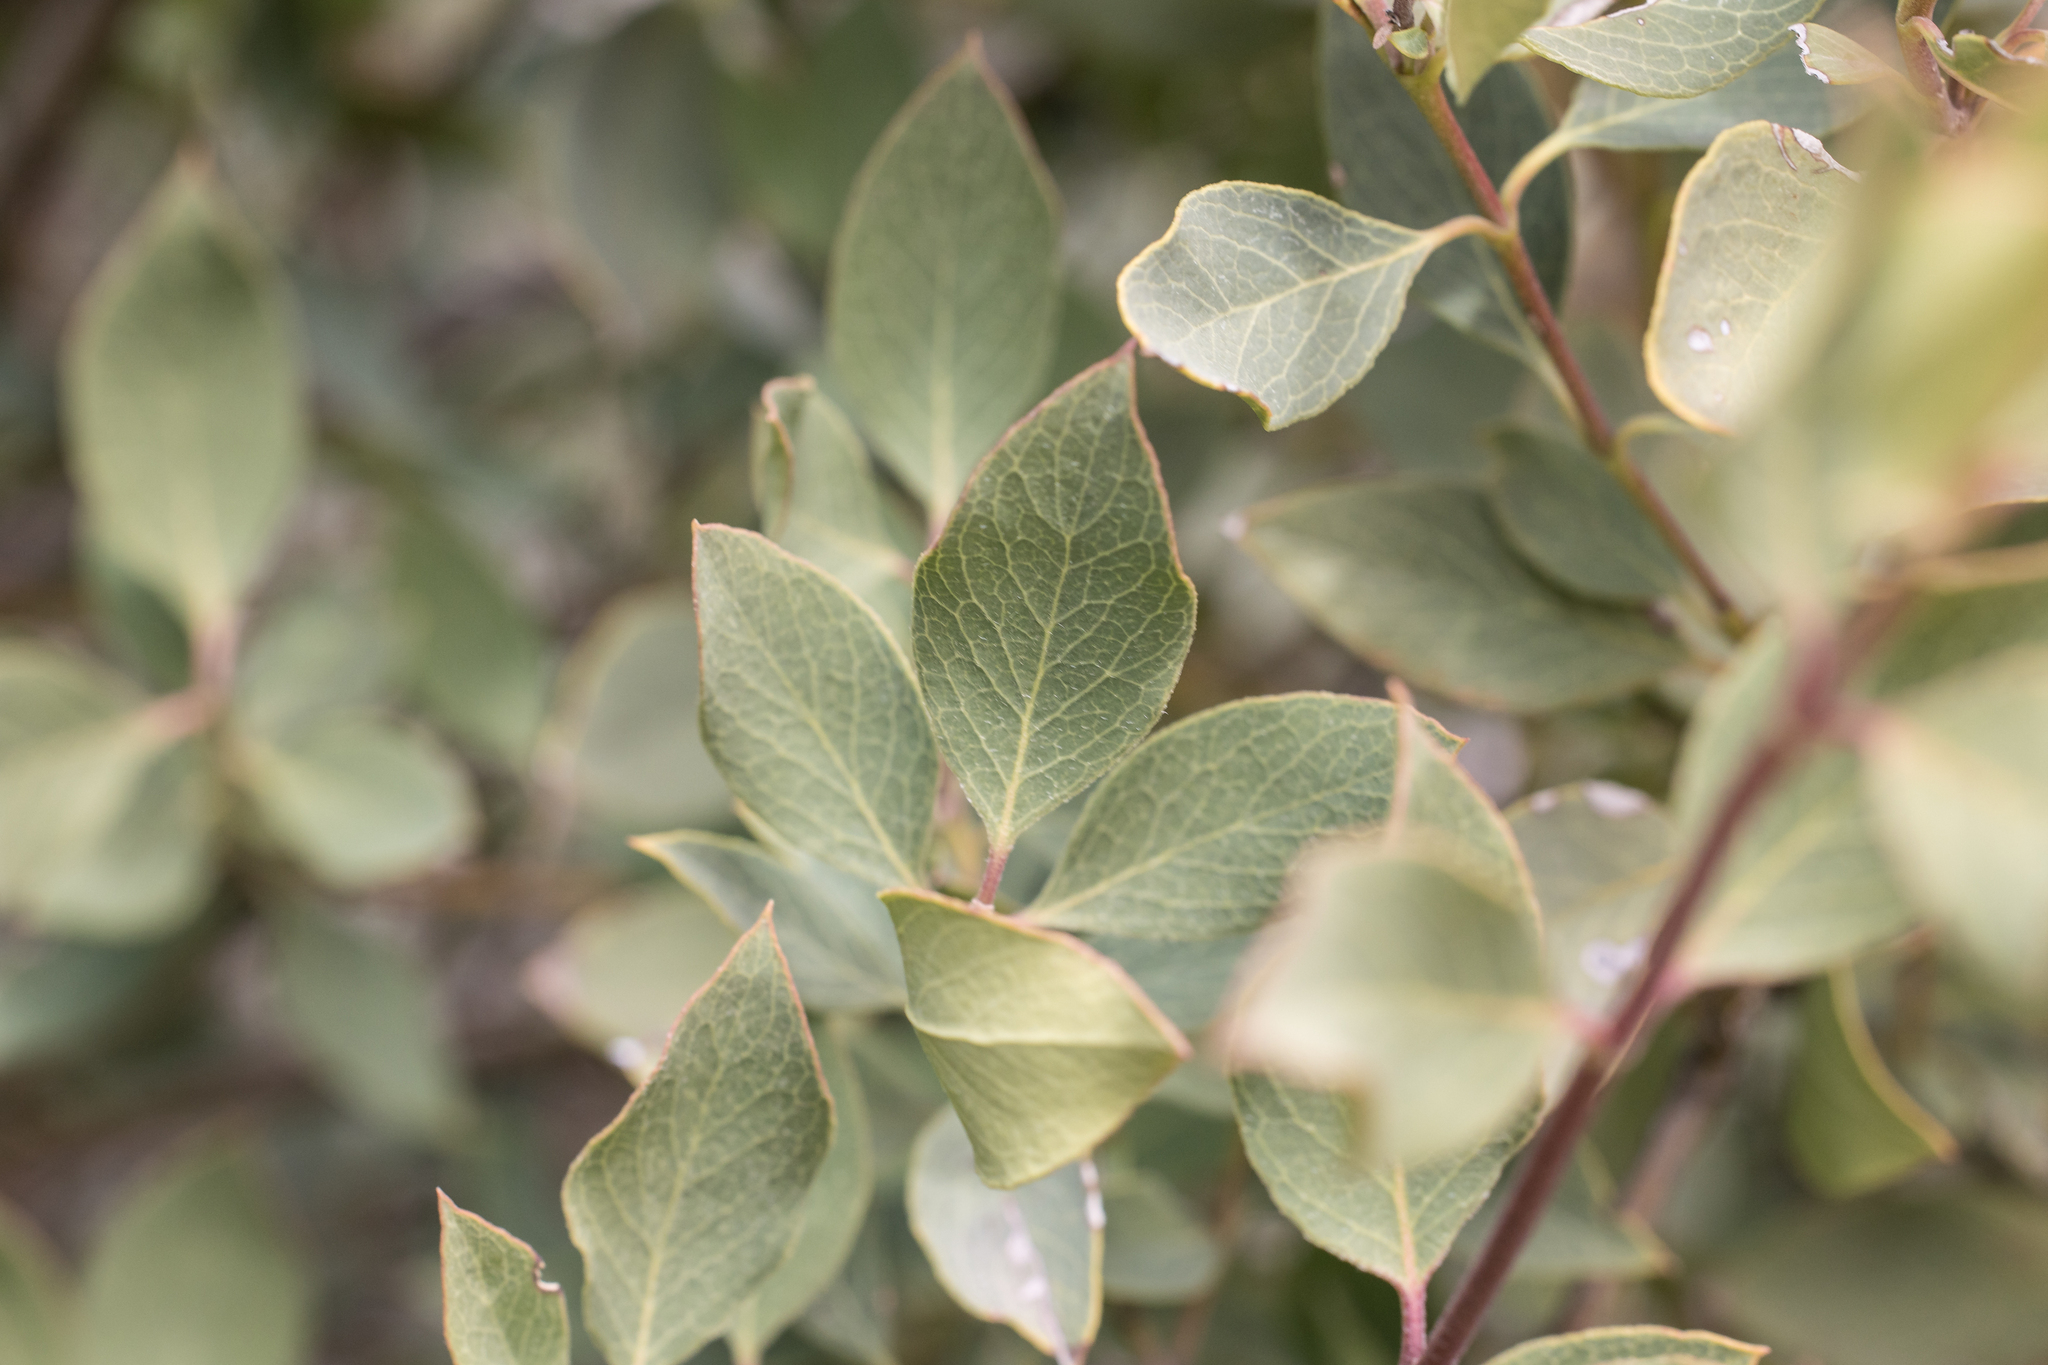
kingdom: Plantae
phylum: Tracheophyta
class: Magnoliopsida
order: Garryales
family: Garryaceae
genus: Garrya
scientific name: Garrya wrightii
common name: Wright's silktassel
